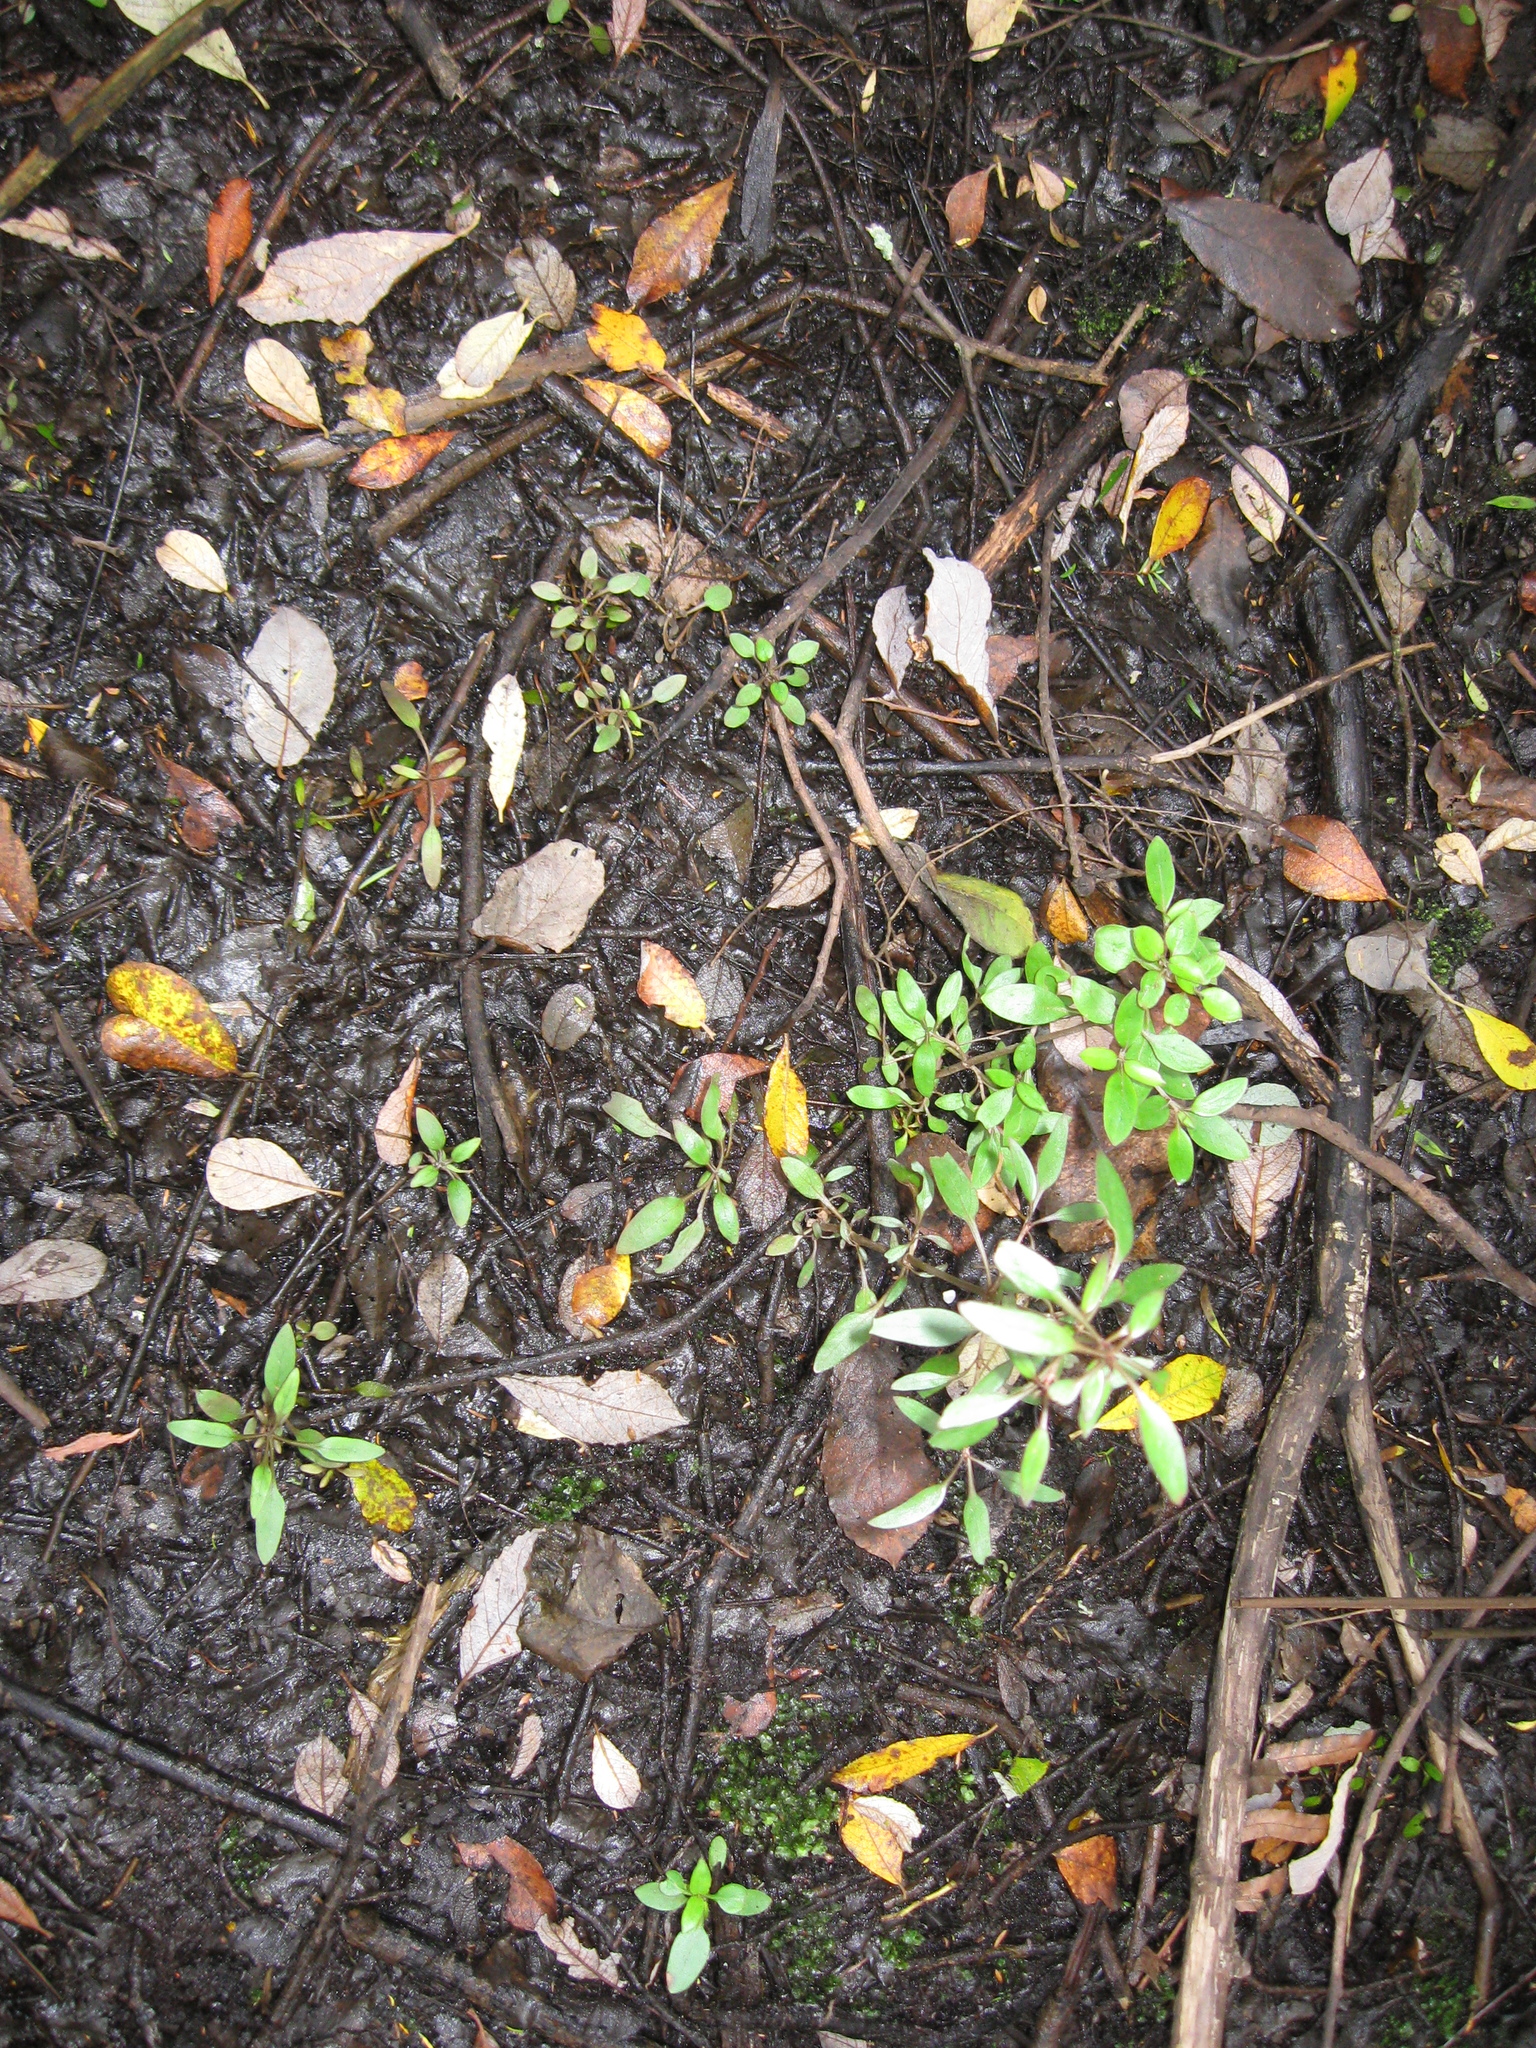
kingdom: Plantae
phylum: Tracheophyta
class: Magnoliopsida
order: Gentianales
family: Rubiaceae
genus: Coprosma
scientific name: Coprosma cunninghamii
